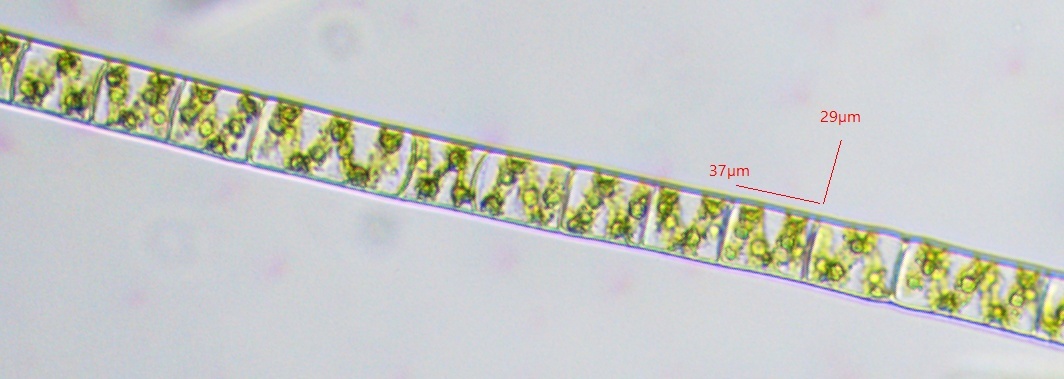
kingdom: Plantae
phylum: Charophyta
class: Zygnematophyceae
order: Zygnematales
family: Zygnemataceae
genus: Spirogyra
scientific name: Spirogyra
